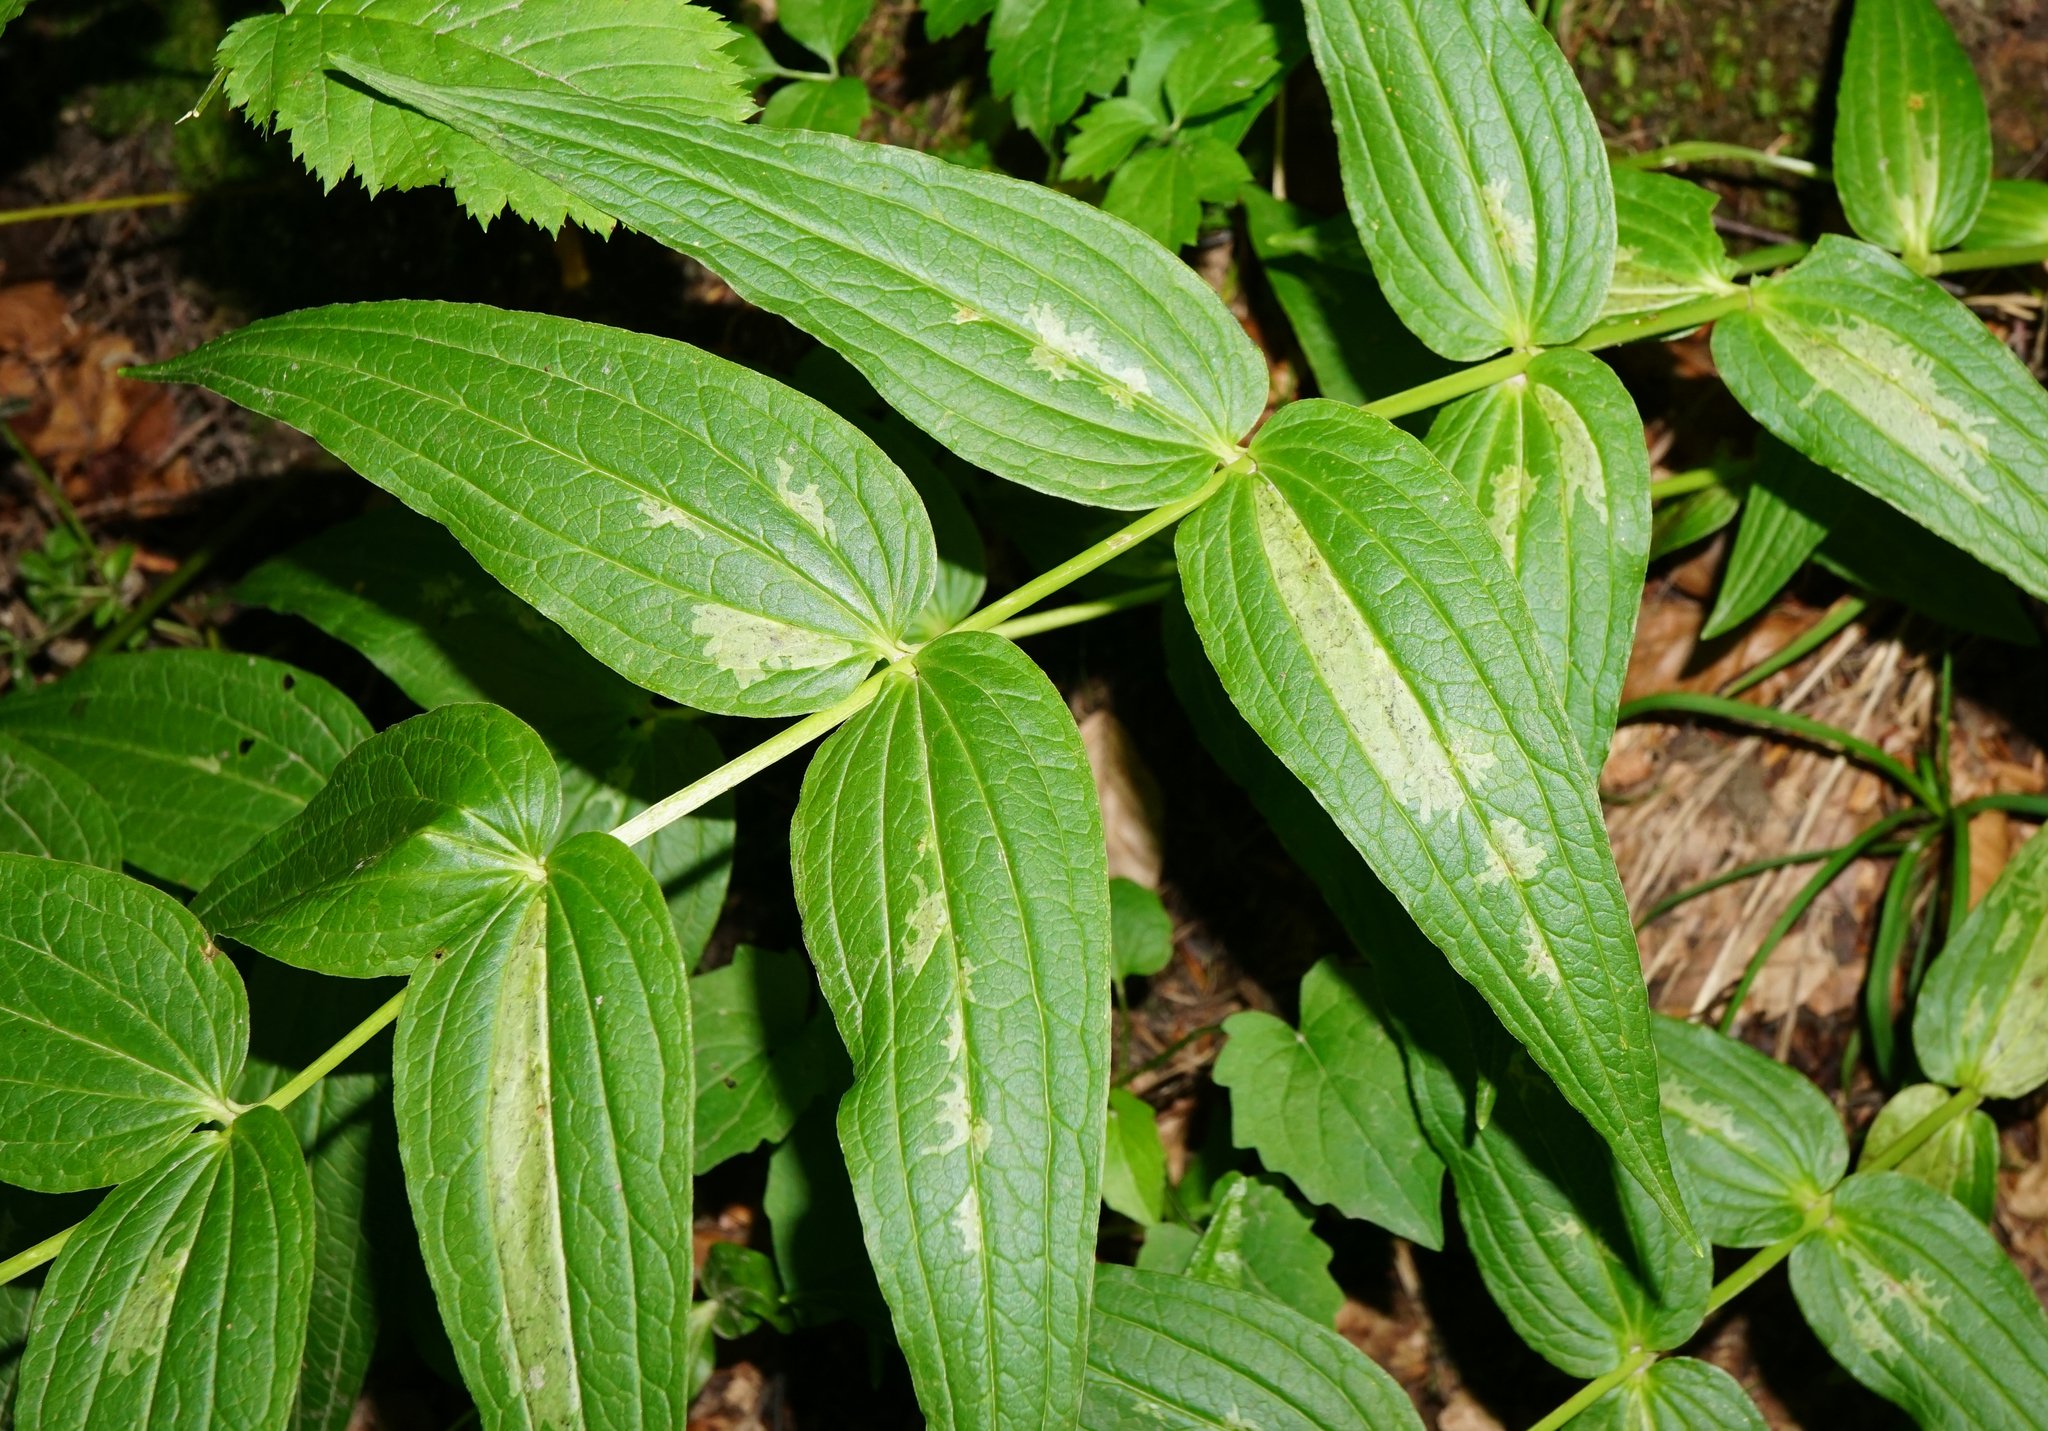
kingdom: Animalia
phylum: Arthropoda
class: Insecta
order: Diptera
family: Agromyzidae
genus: Phytomyza
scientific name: Phytomyza gentianae
